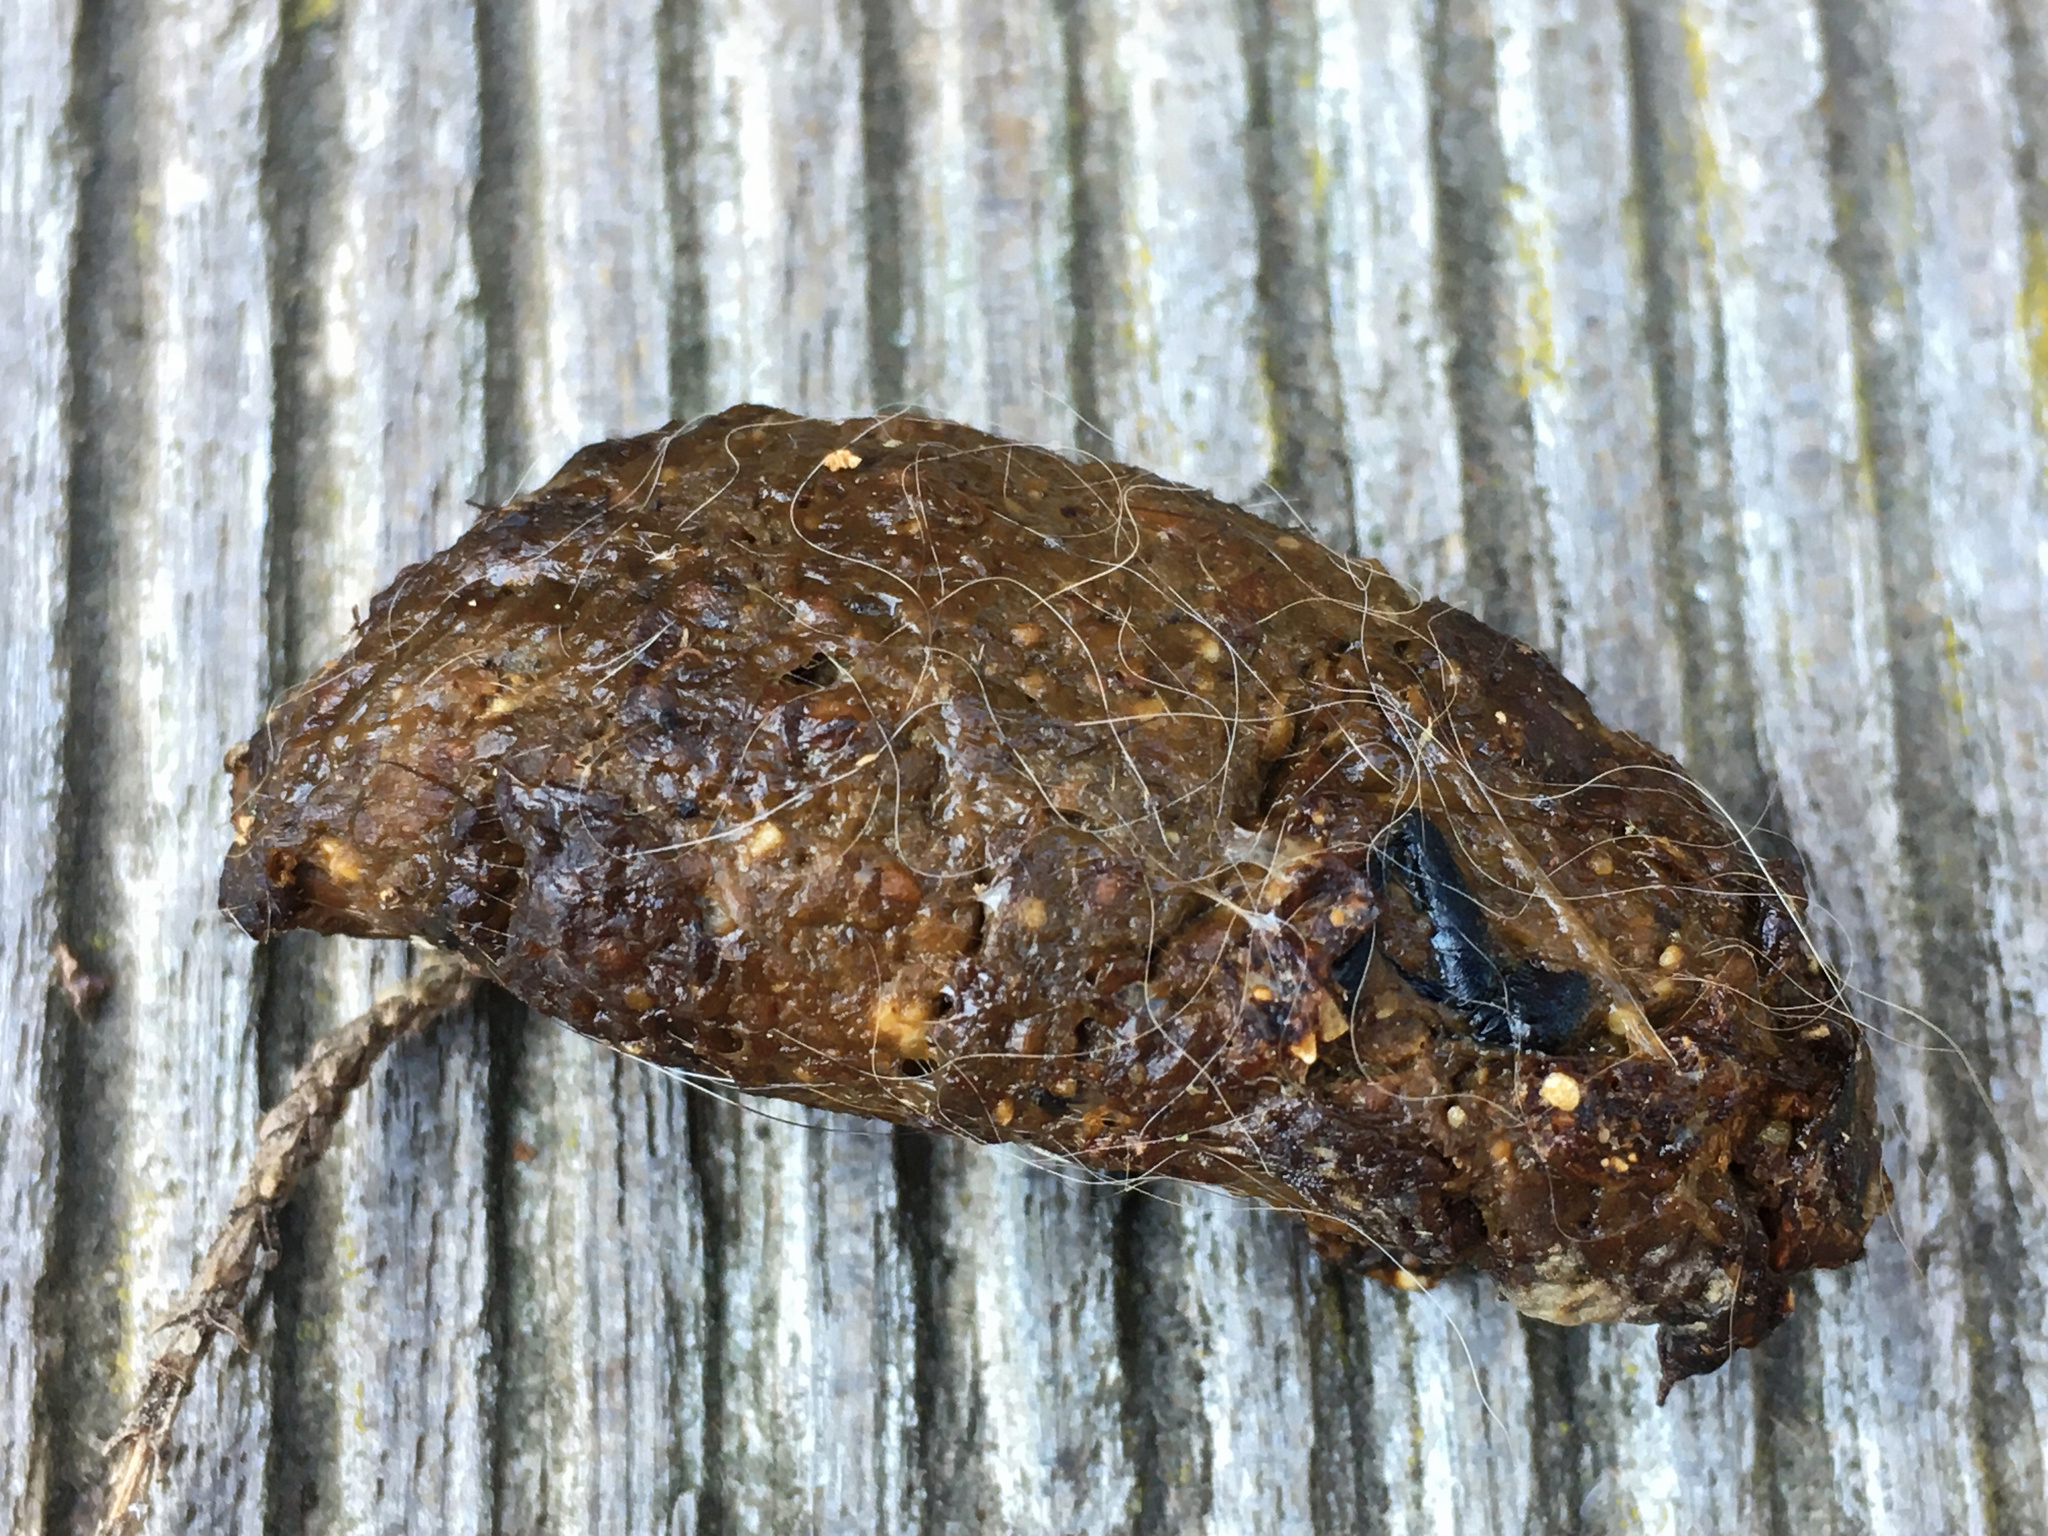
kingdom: Animalia
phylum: Chordata
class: Mammalia
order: Carnivora
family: Felidae
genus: Felis
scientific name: Felis catus
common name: Domestic cat
